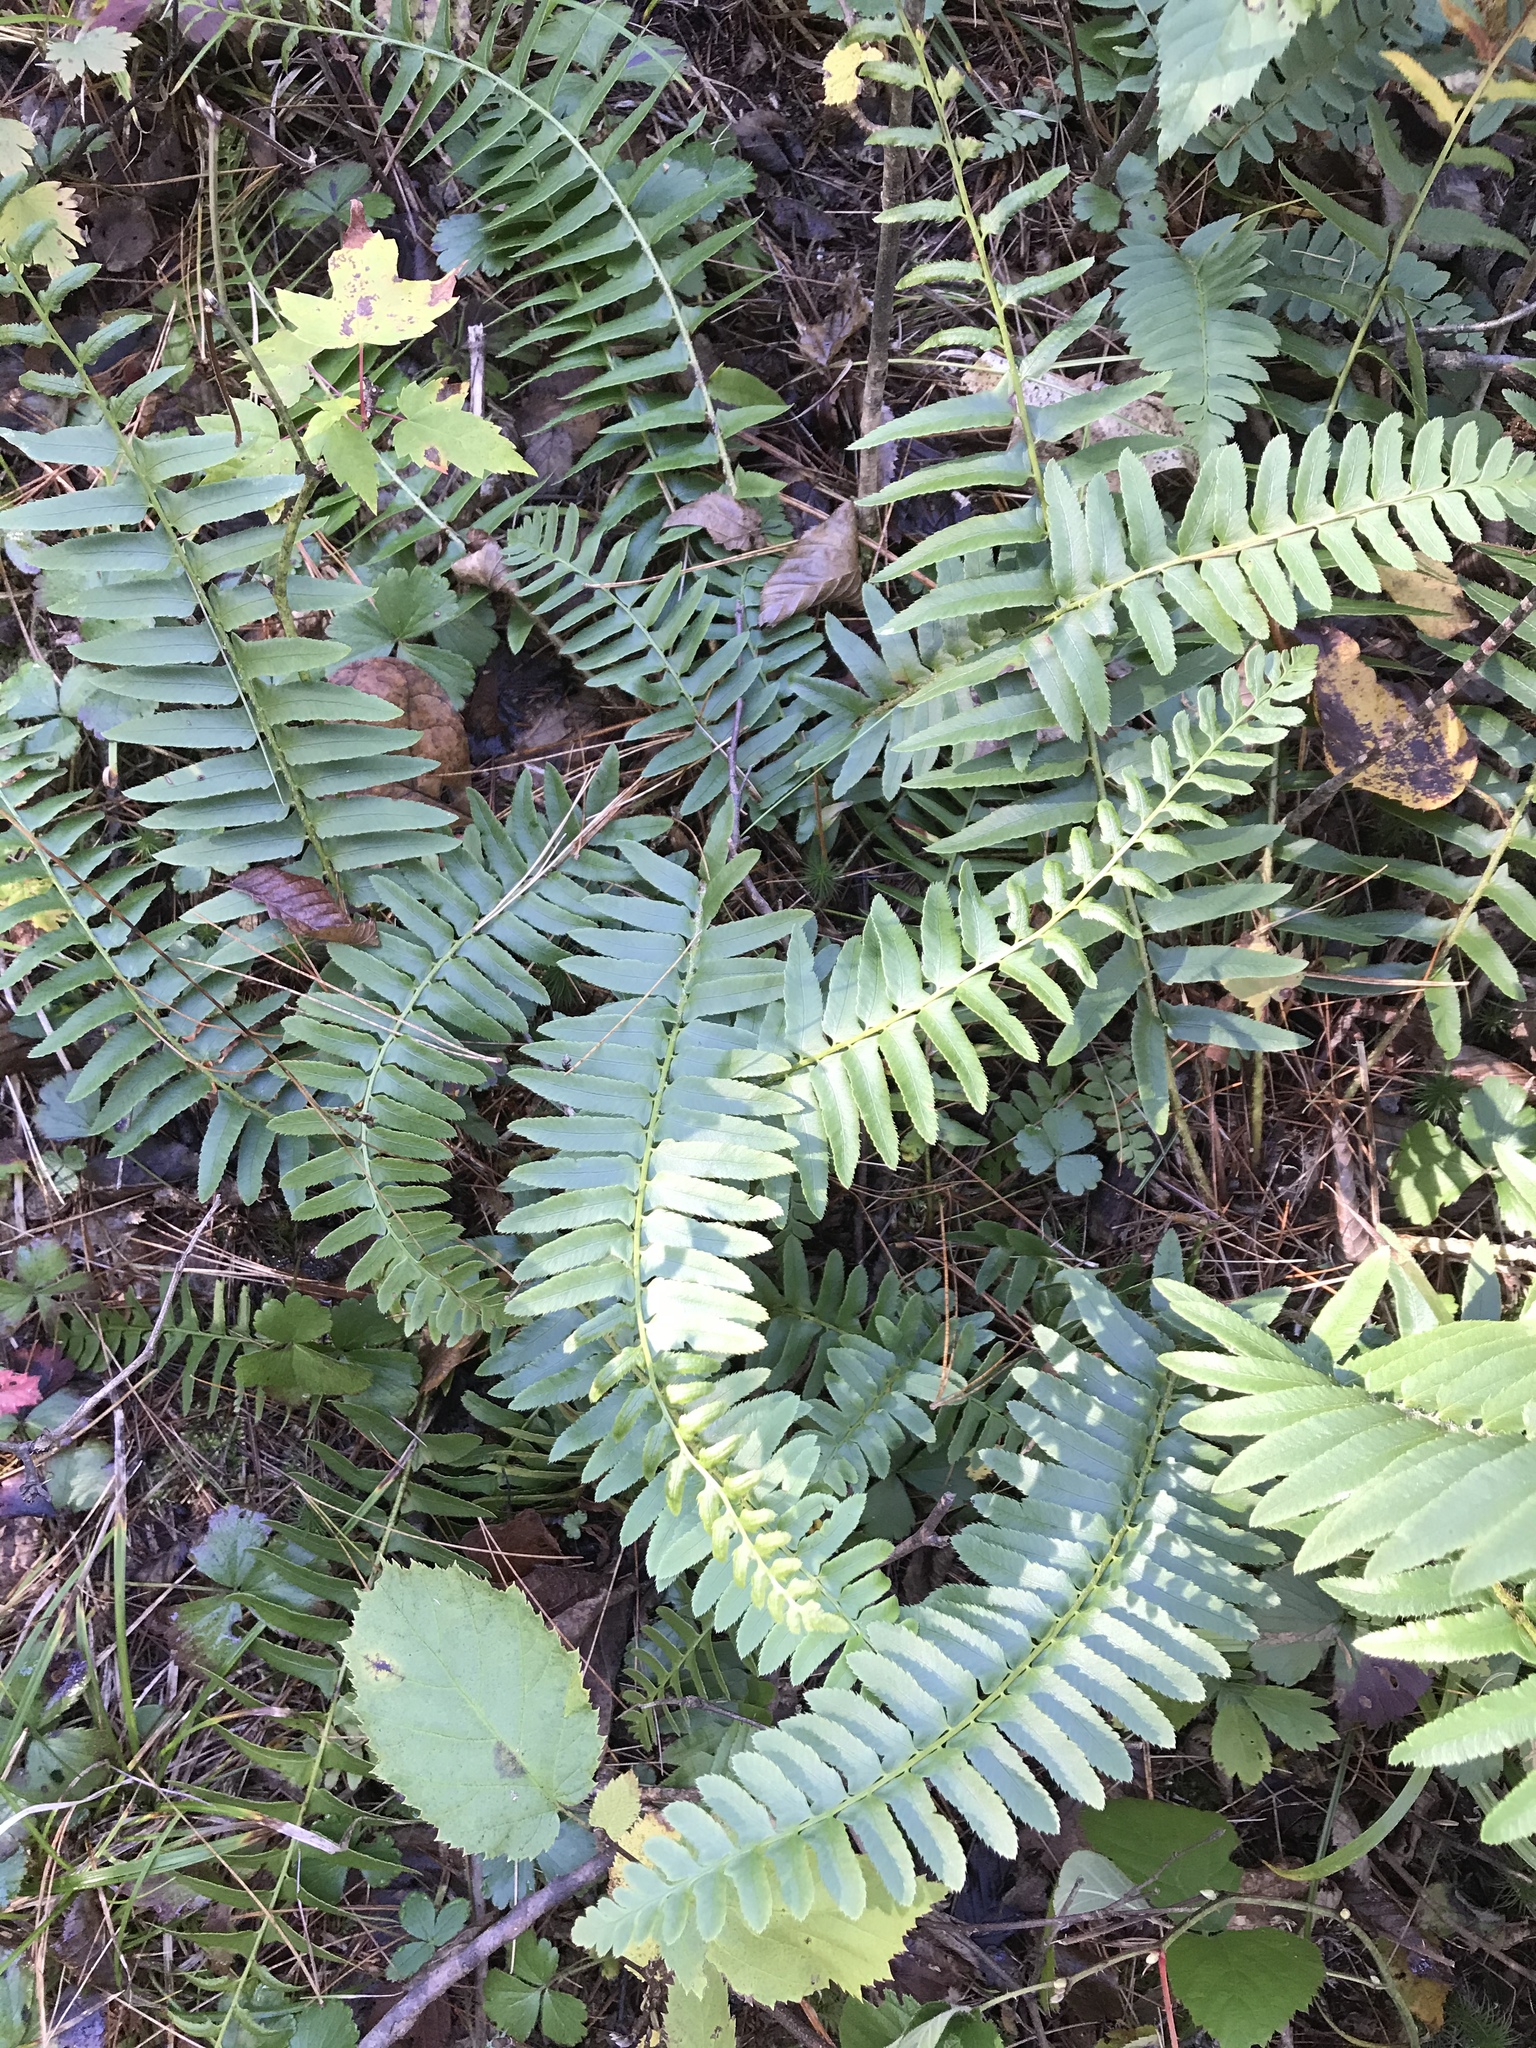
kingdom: Plantae
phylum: Tracheophyta
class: Polypodiopsida
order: Polypodiales
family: Dryopteridaceae
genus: Polystichum
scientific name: Polystichum acrostichoides
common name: Christmas fern
